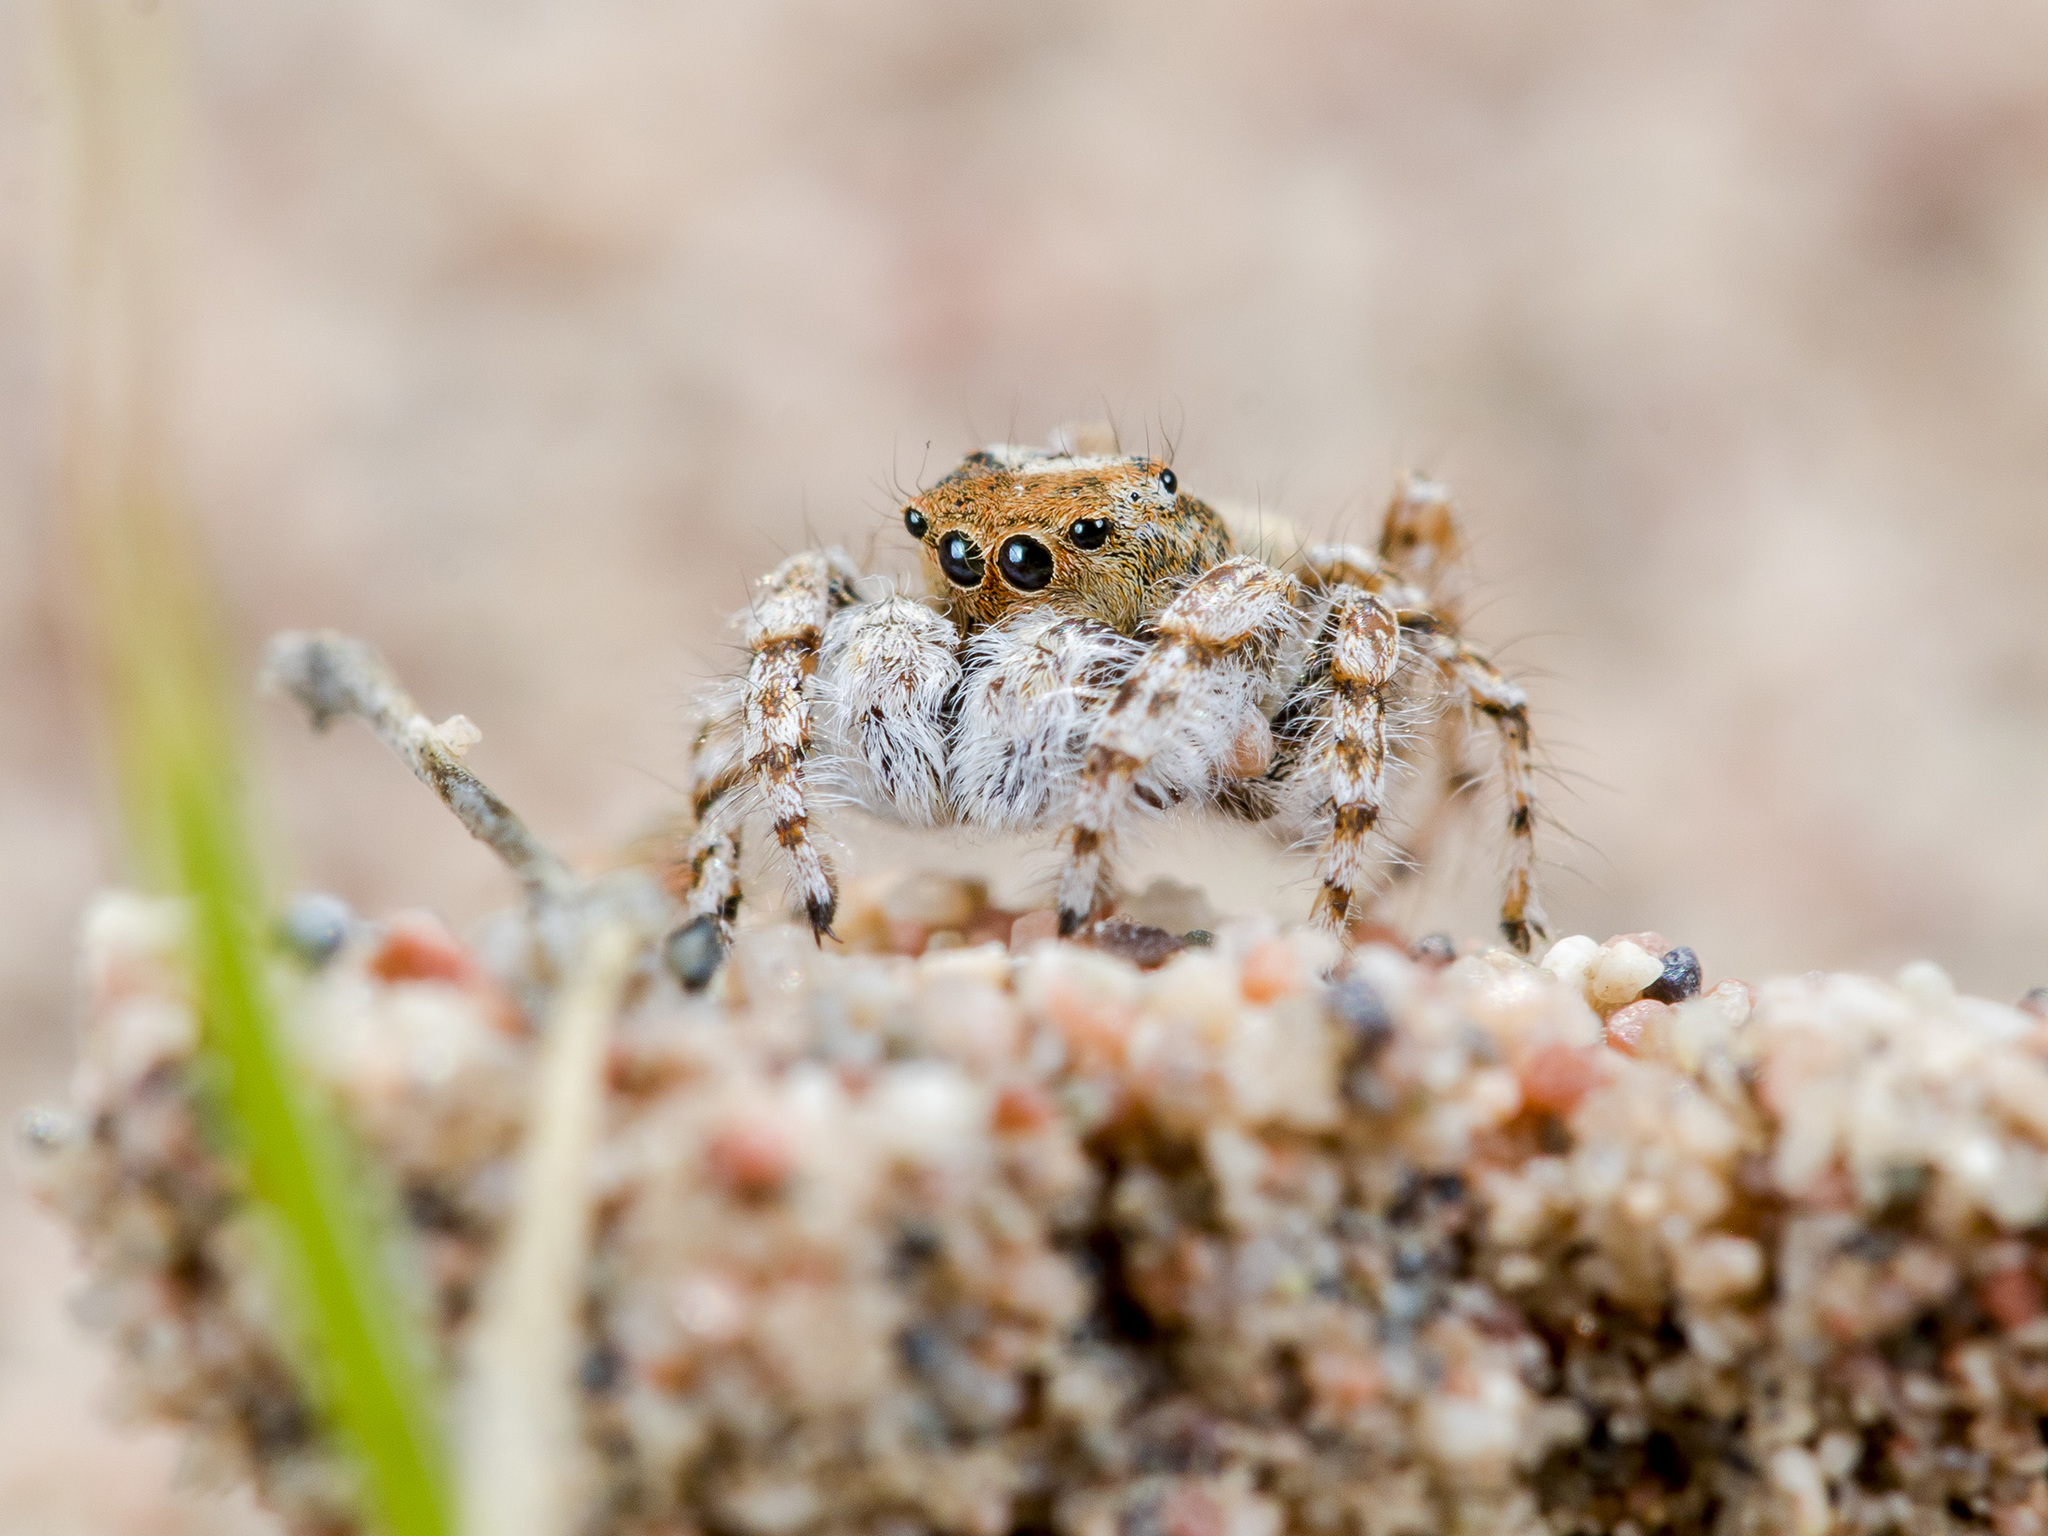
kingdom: Animalia
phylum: Arthropoda
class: Arachnida
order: Araneae
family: Salticidae
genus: Yllenus
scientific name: Yllenus uiguricus
